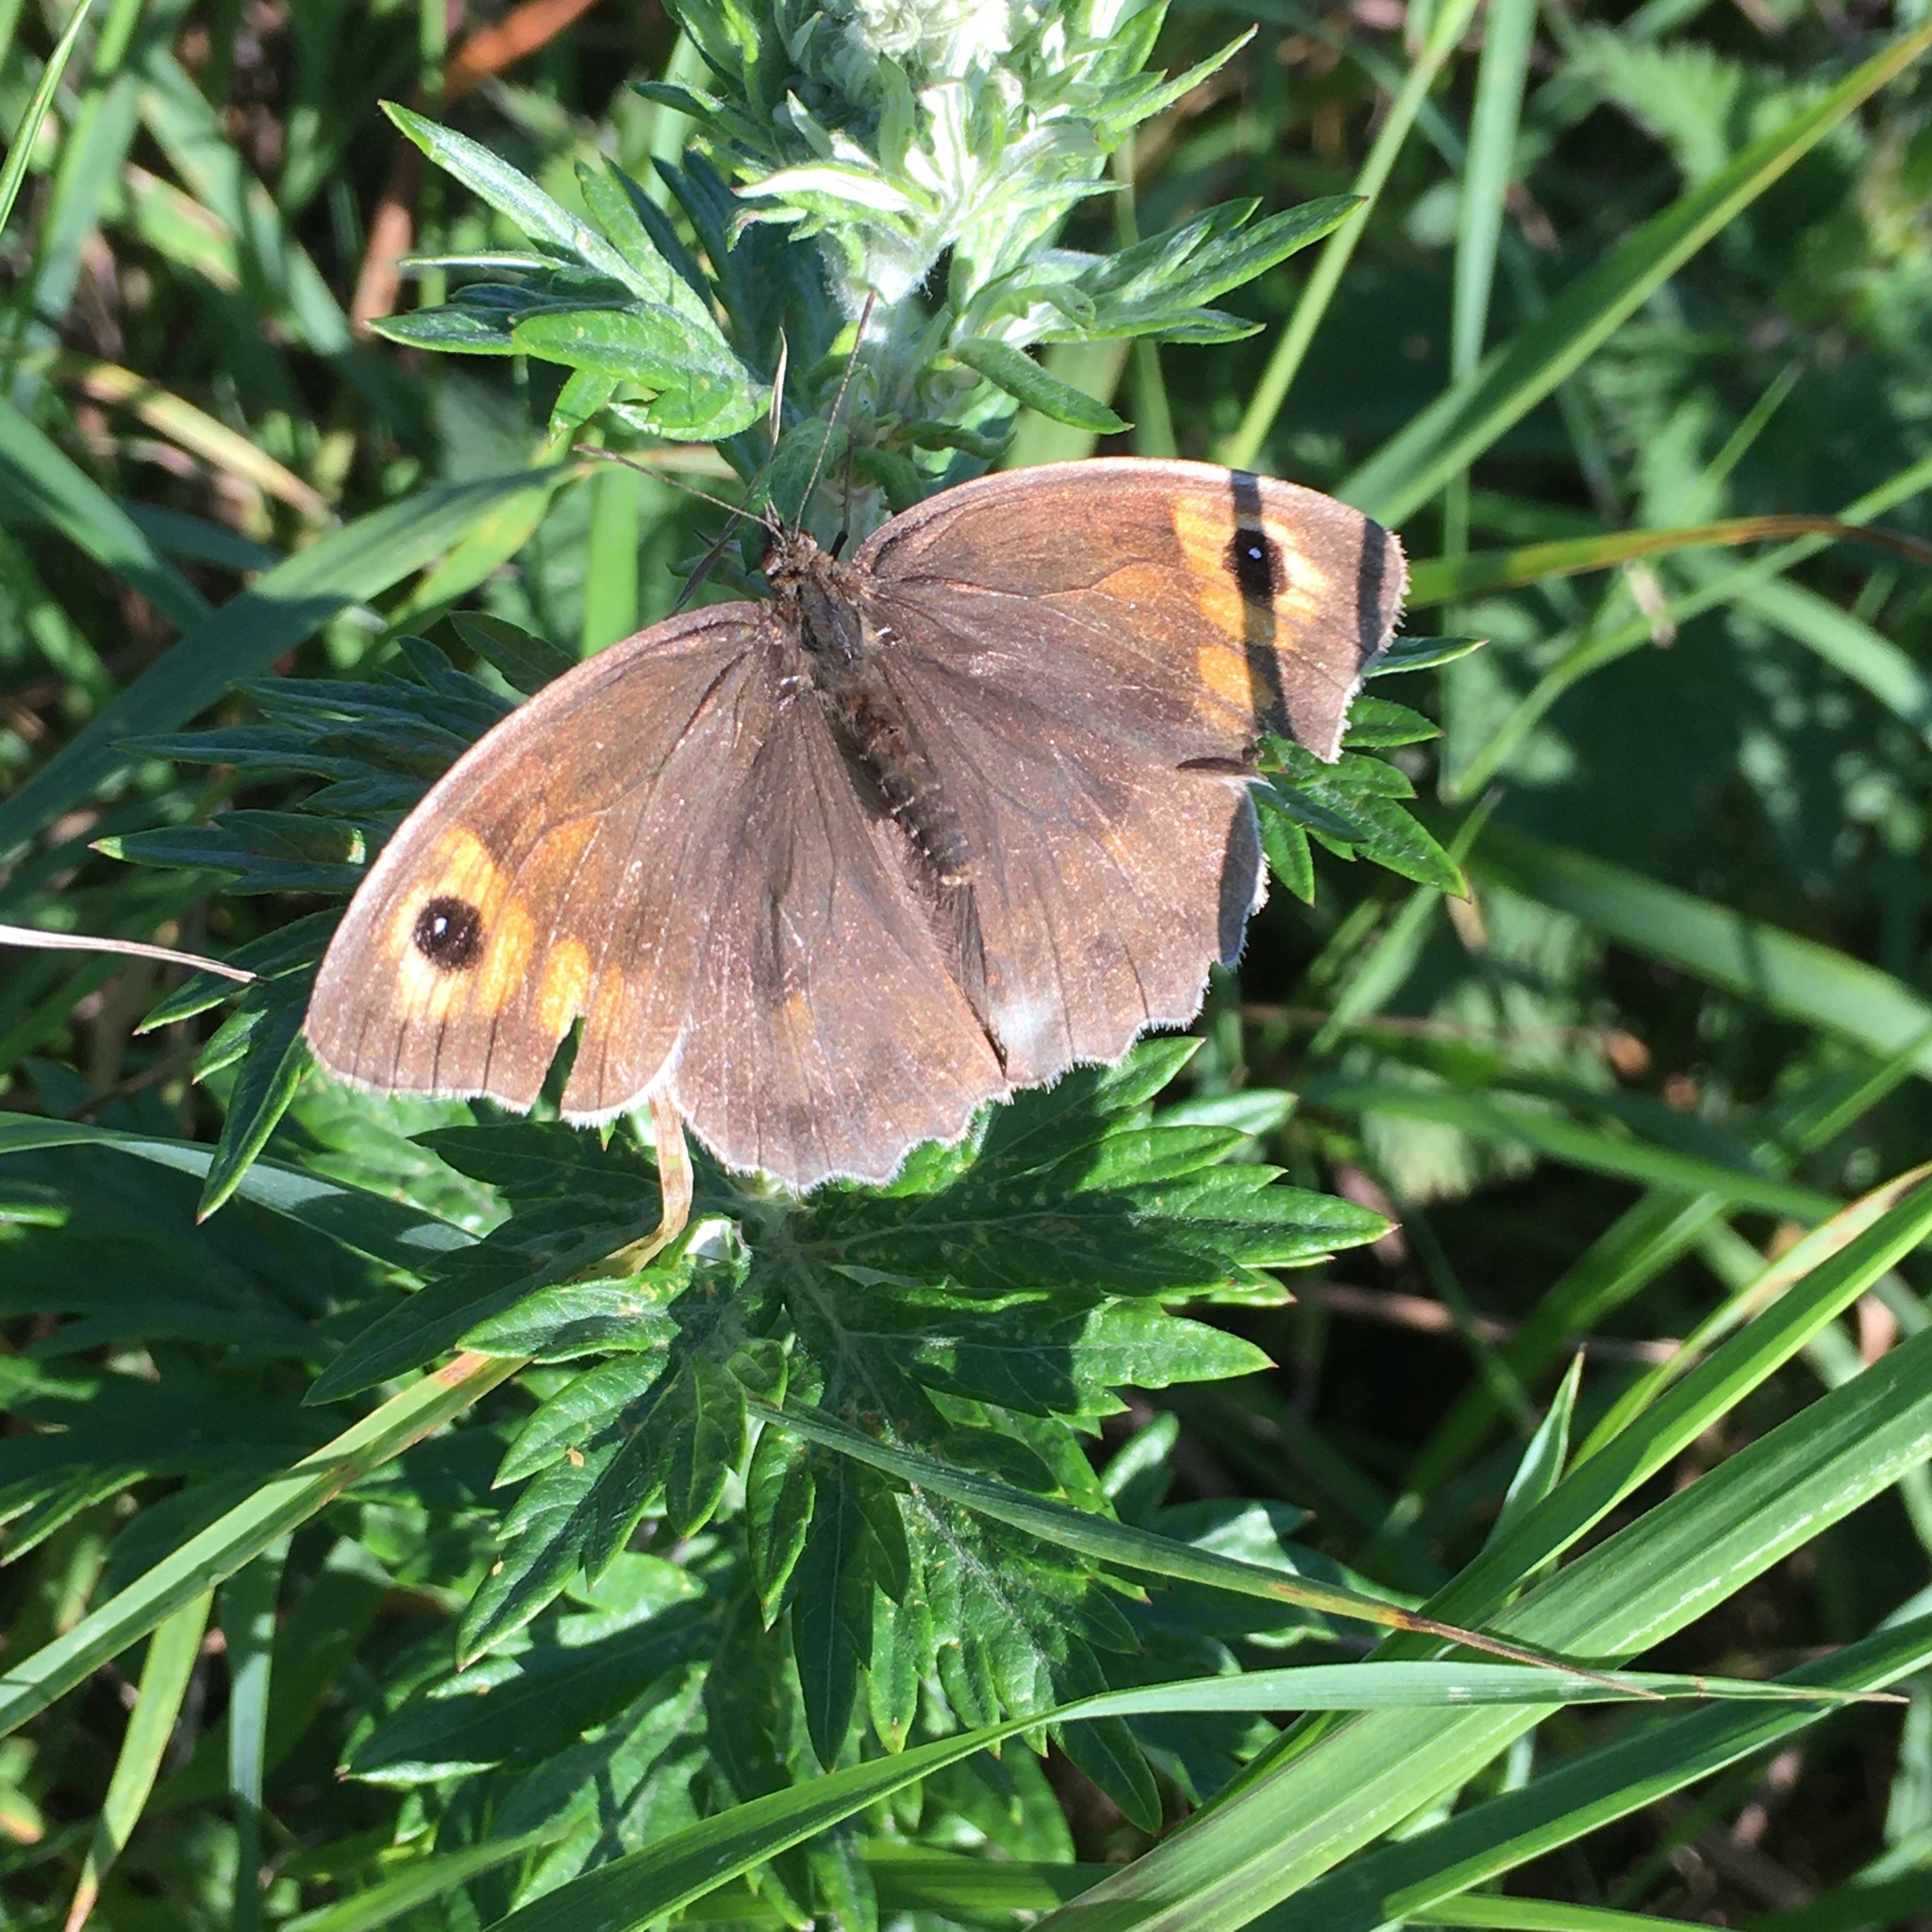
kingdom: Animalia
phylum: Arthropoda
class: Insecta
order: Lepidoptera
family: Nymphalidae
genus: Maniola
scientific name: Maniola jurtina
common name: Meadow brown
